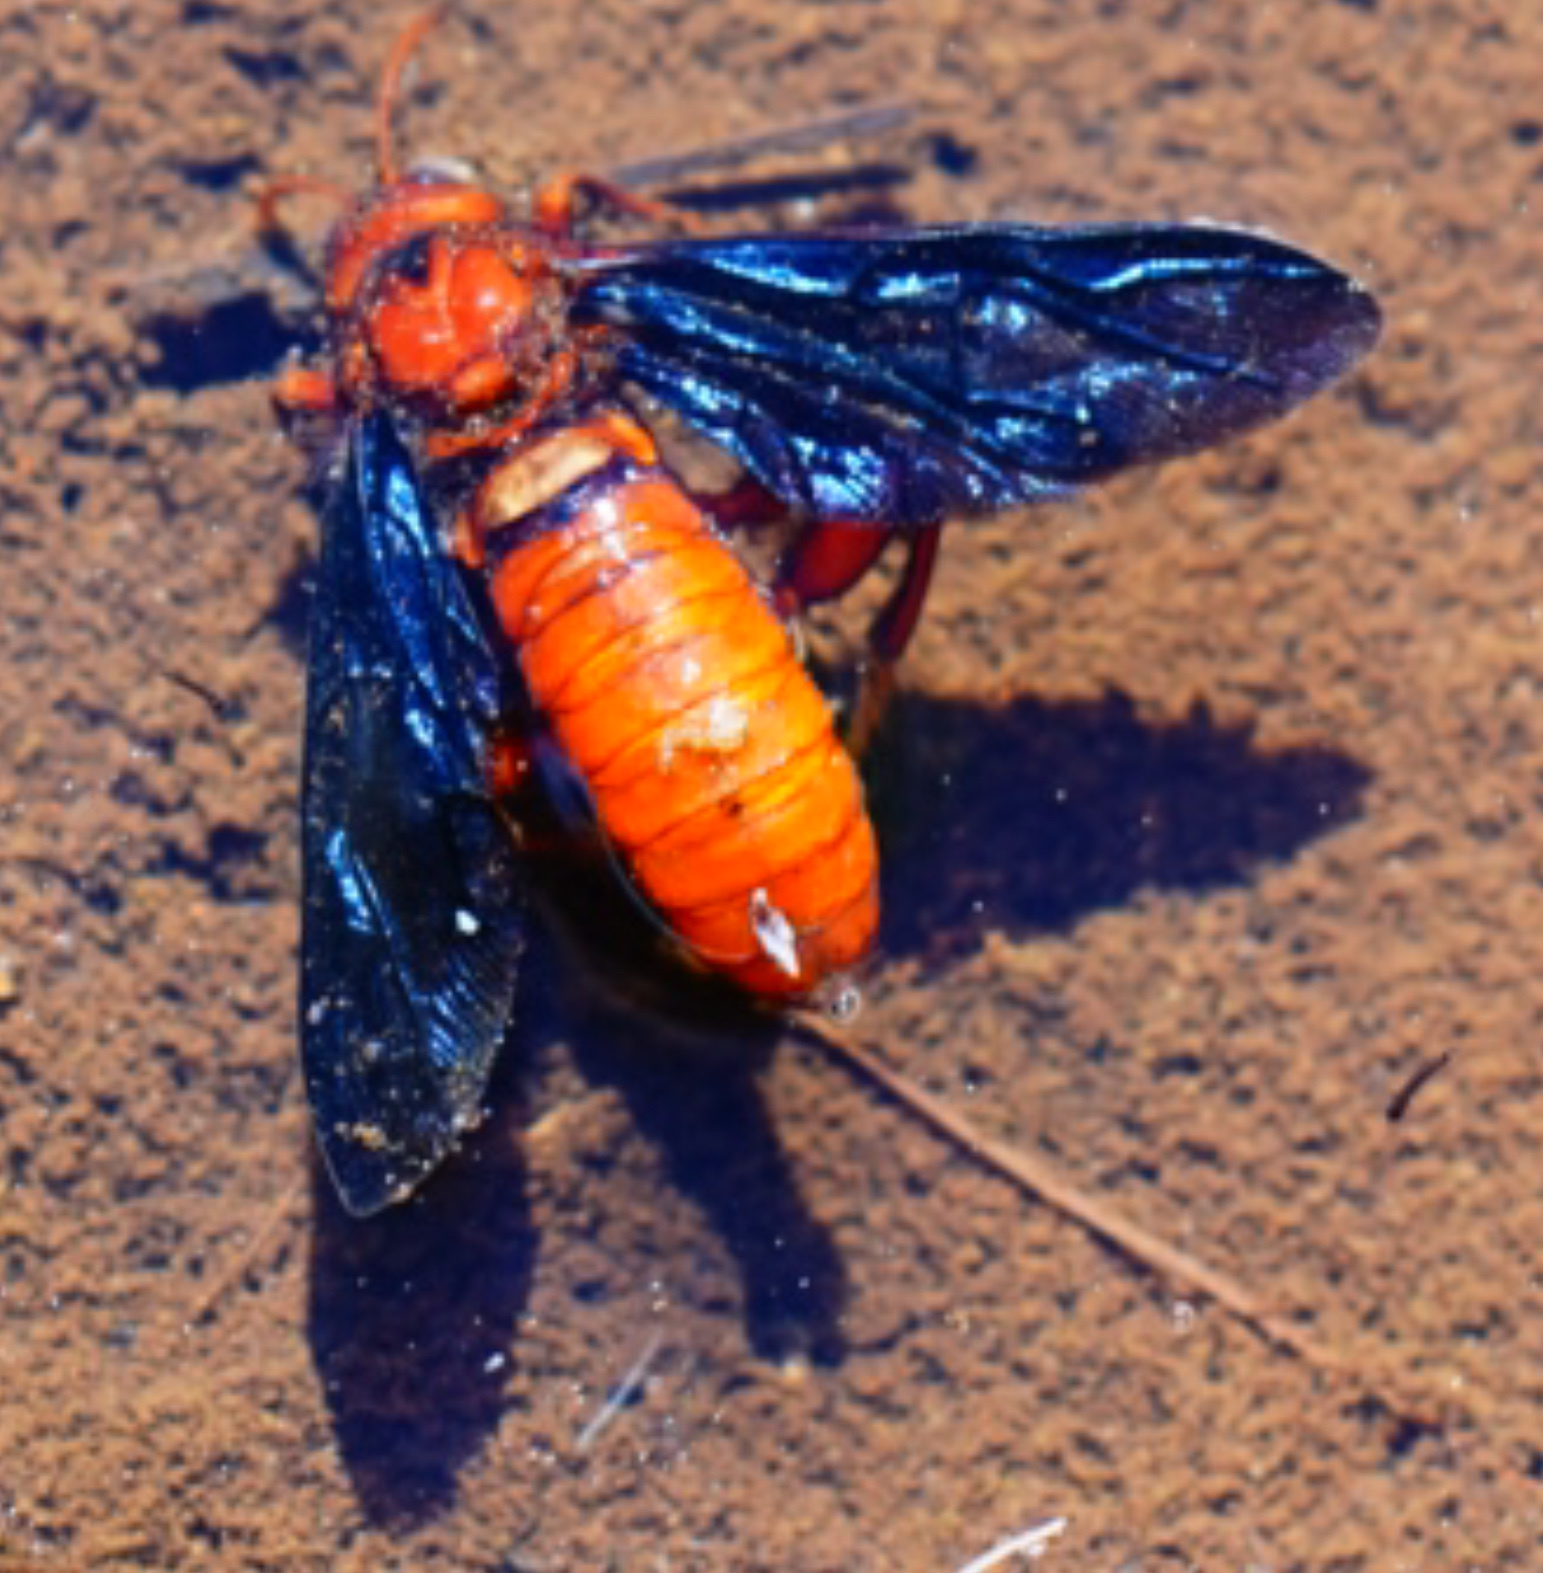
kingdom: Animalia
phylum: Arthropoda
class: Insecta
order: Hymenoptera
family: Cimbicidae
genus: Cimbex
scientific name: Cimbex
